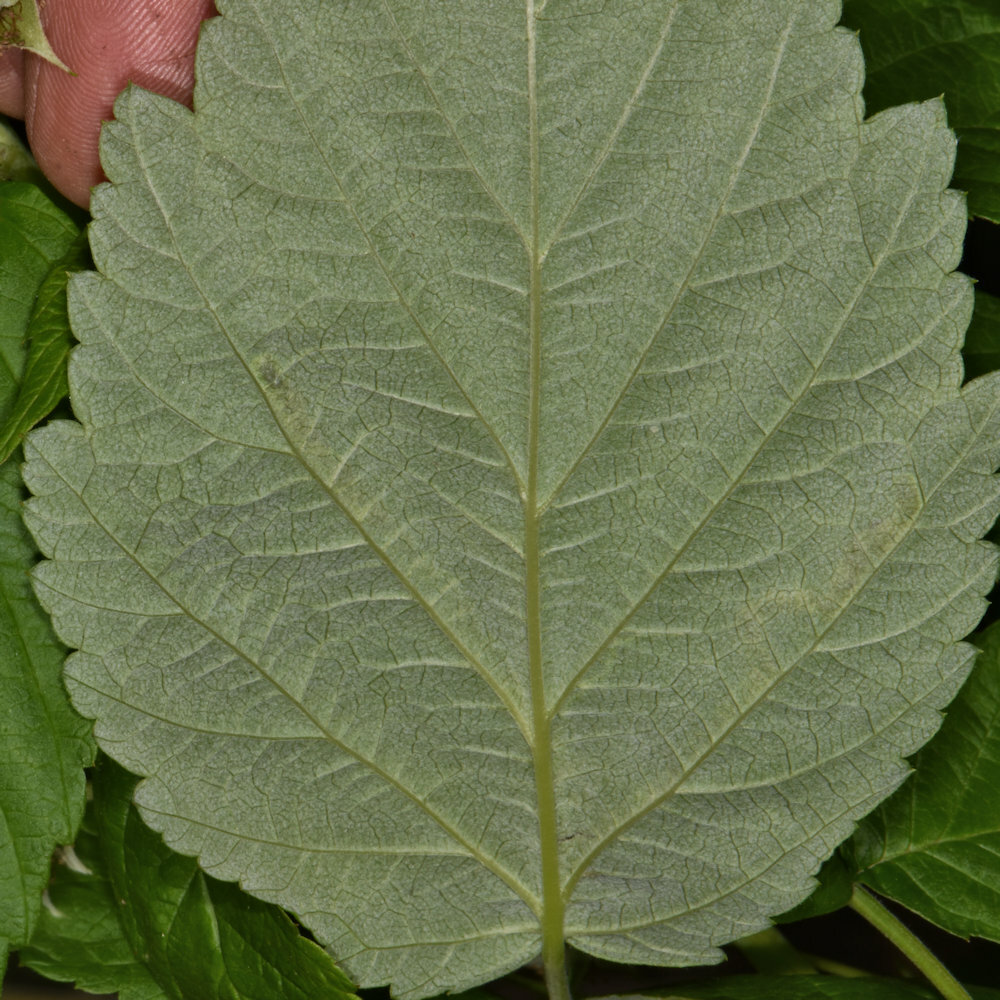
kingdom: Animalia
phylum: Arthropoda
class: Insecta
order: Diptera
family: Agromyzidae
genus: Agromyza
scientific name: Agromyza vockerothi
